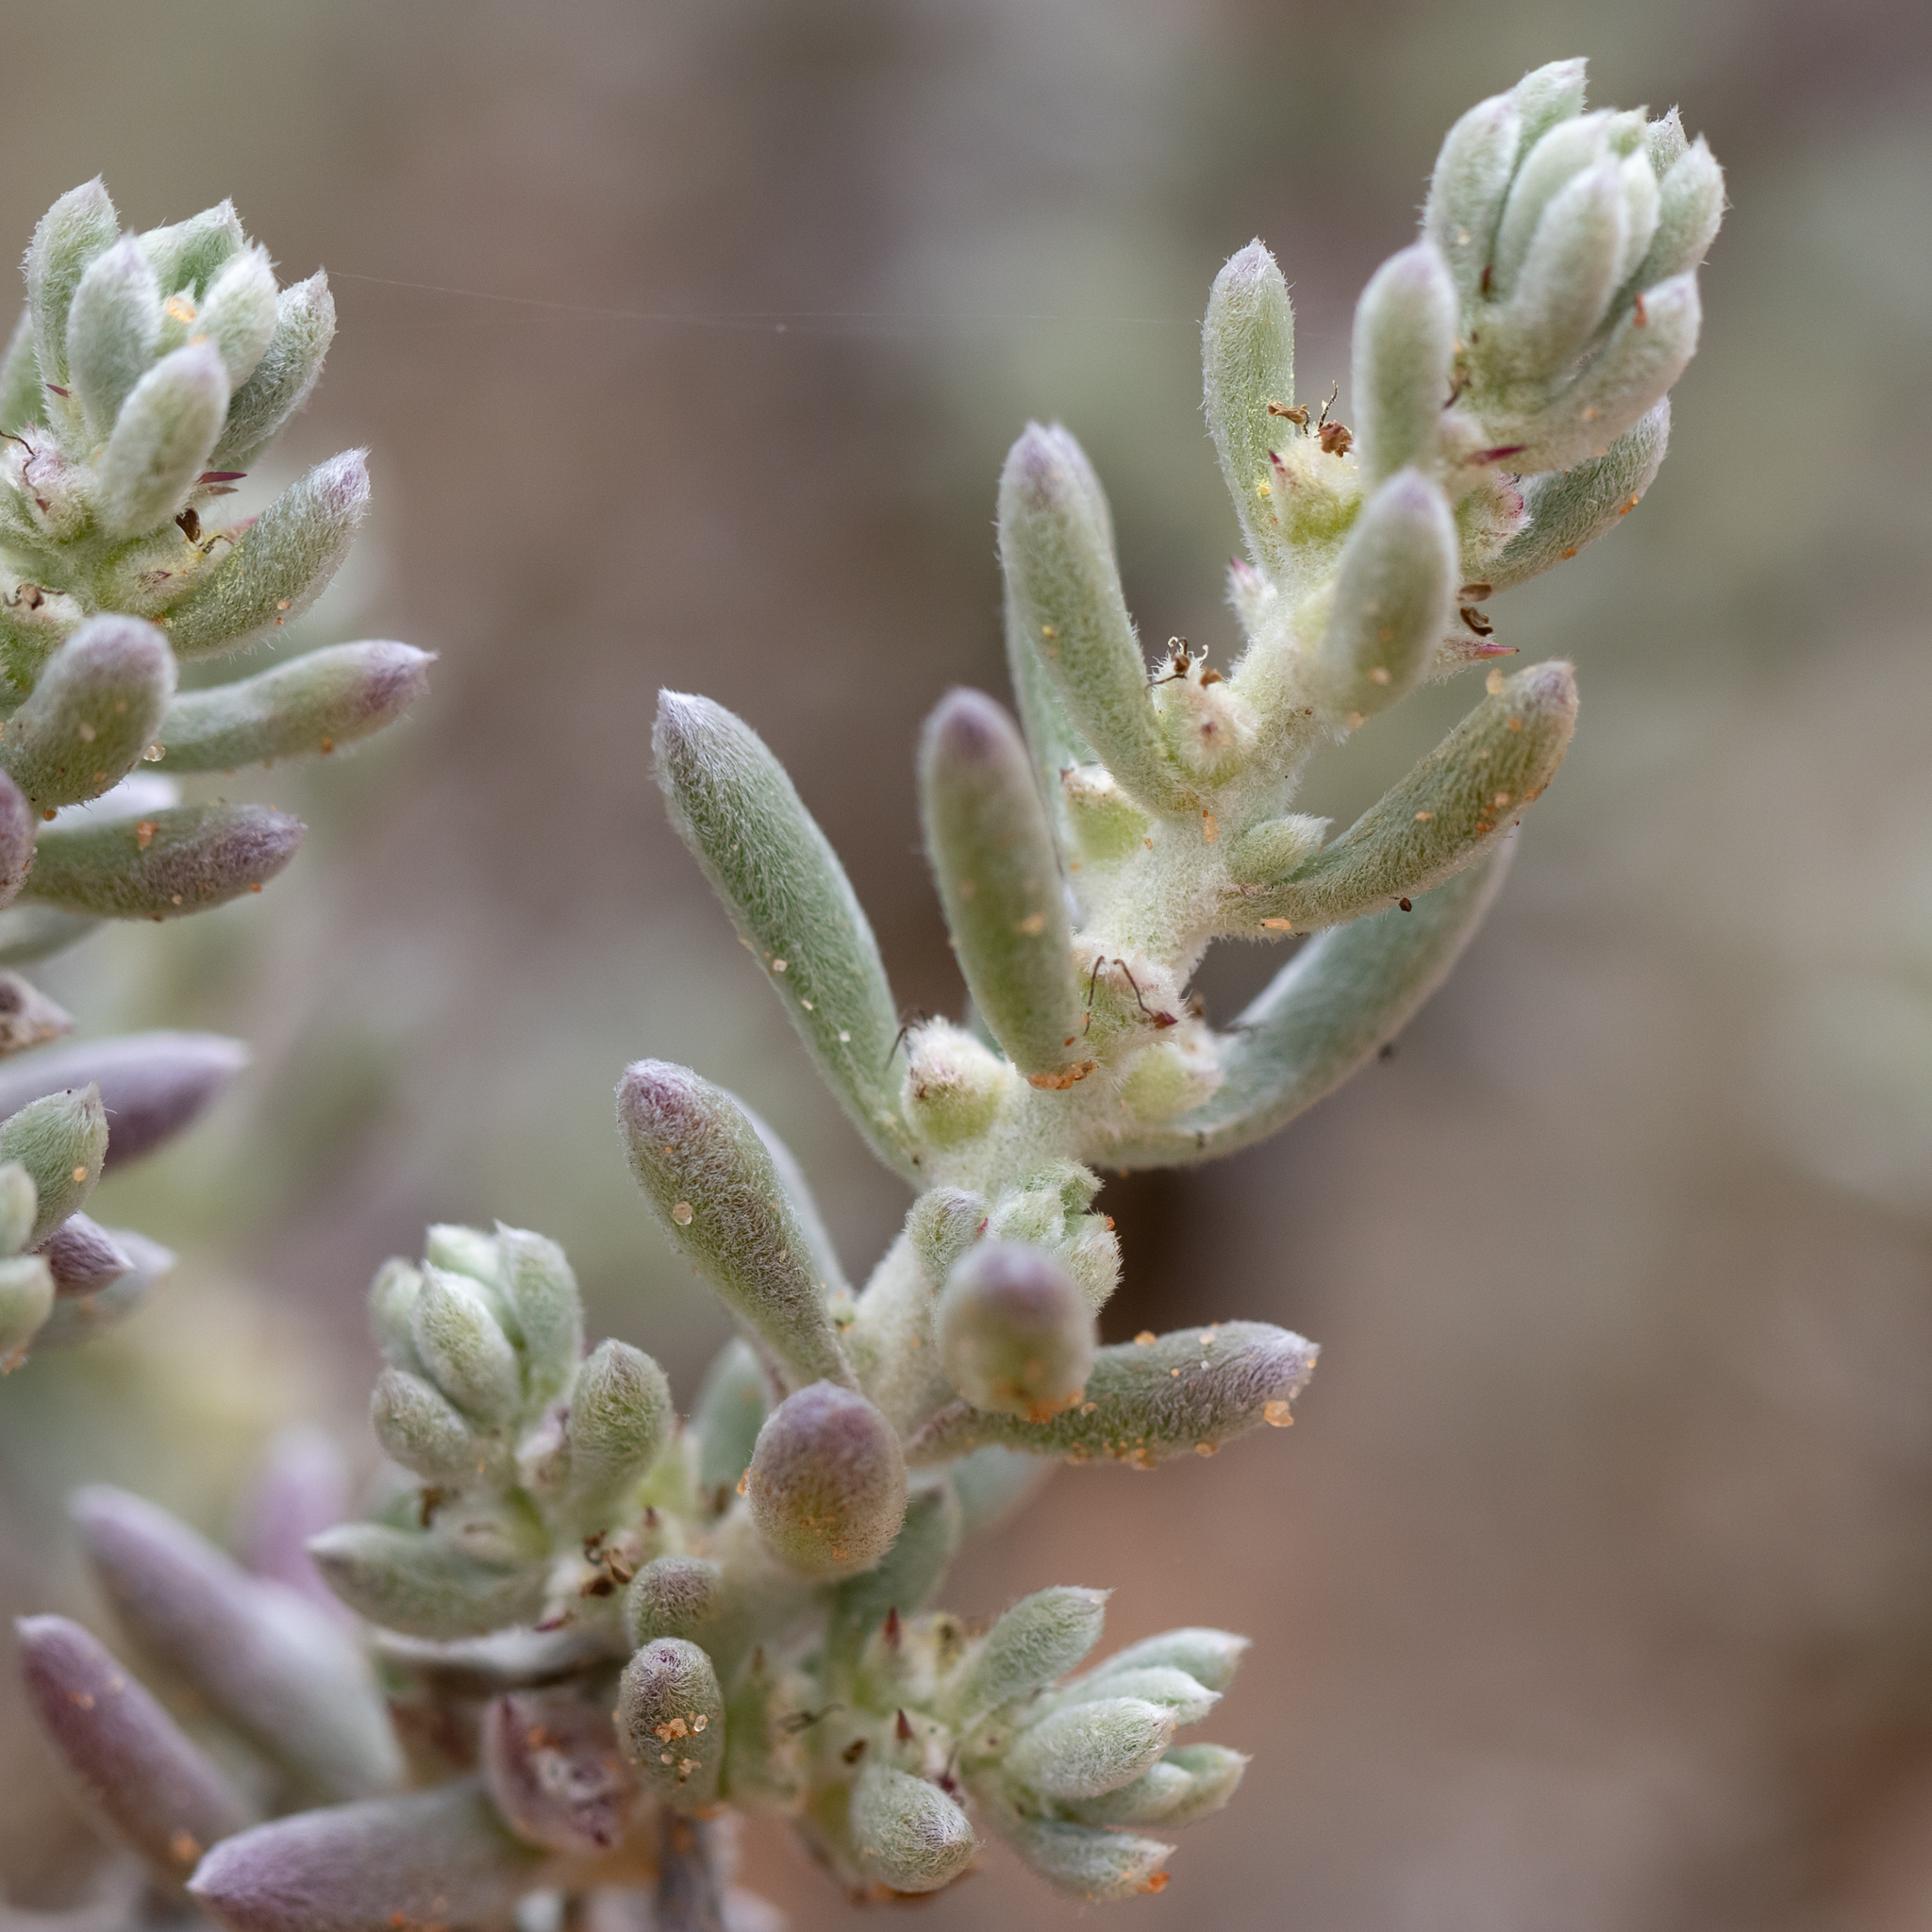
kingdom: Plantae
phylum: Tracheophyta
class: Magnoliopsida
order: Caryophyllales
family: Amaranthaceae
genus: Sclerolaena
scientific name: Sclerolaena diacantha
